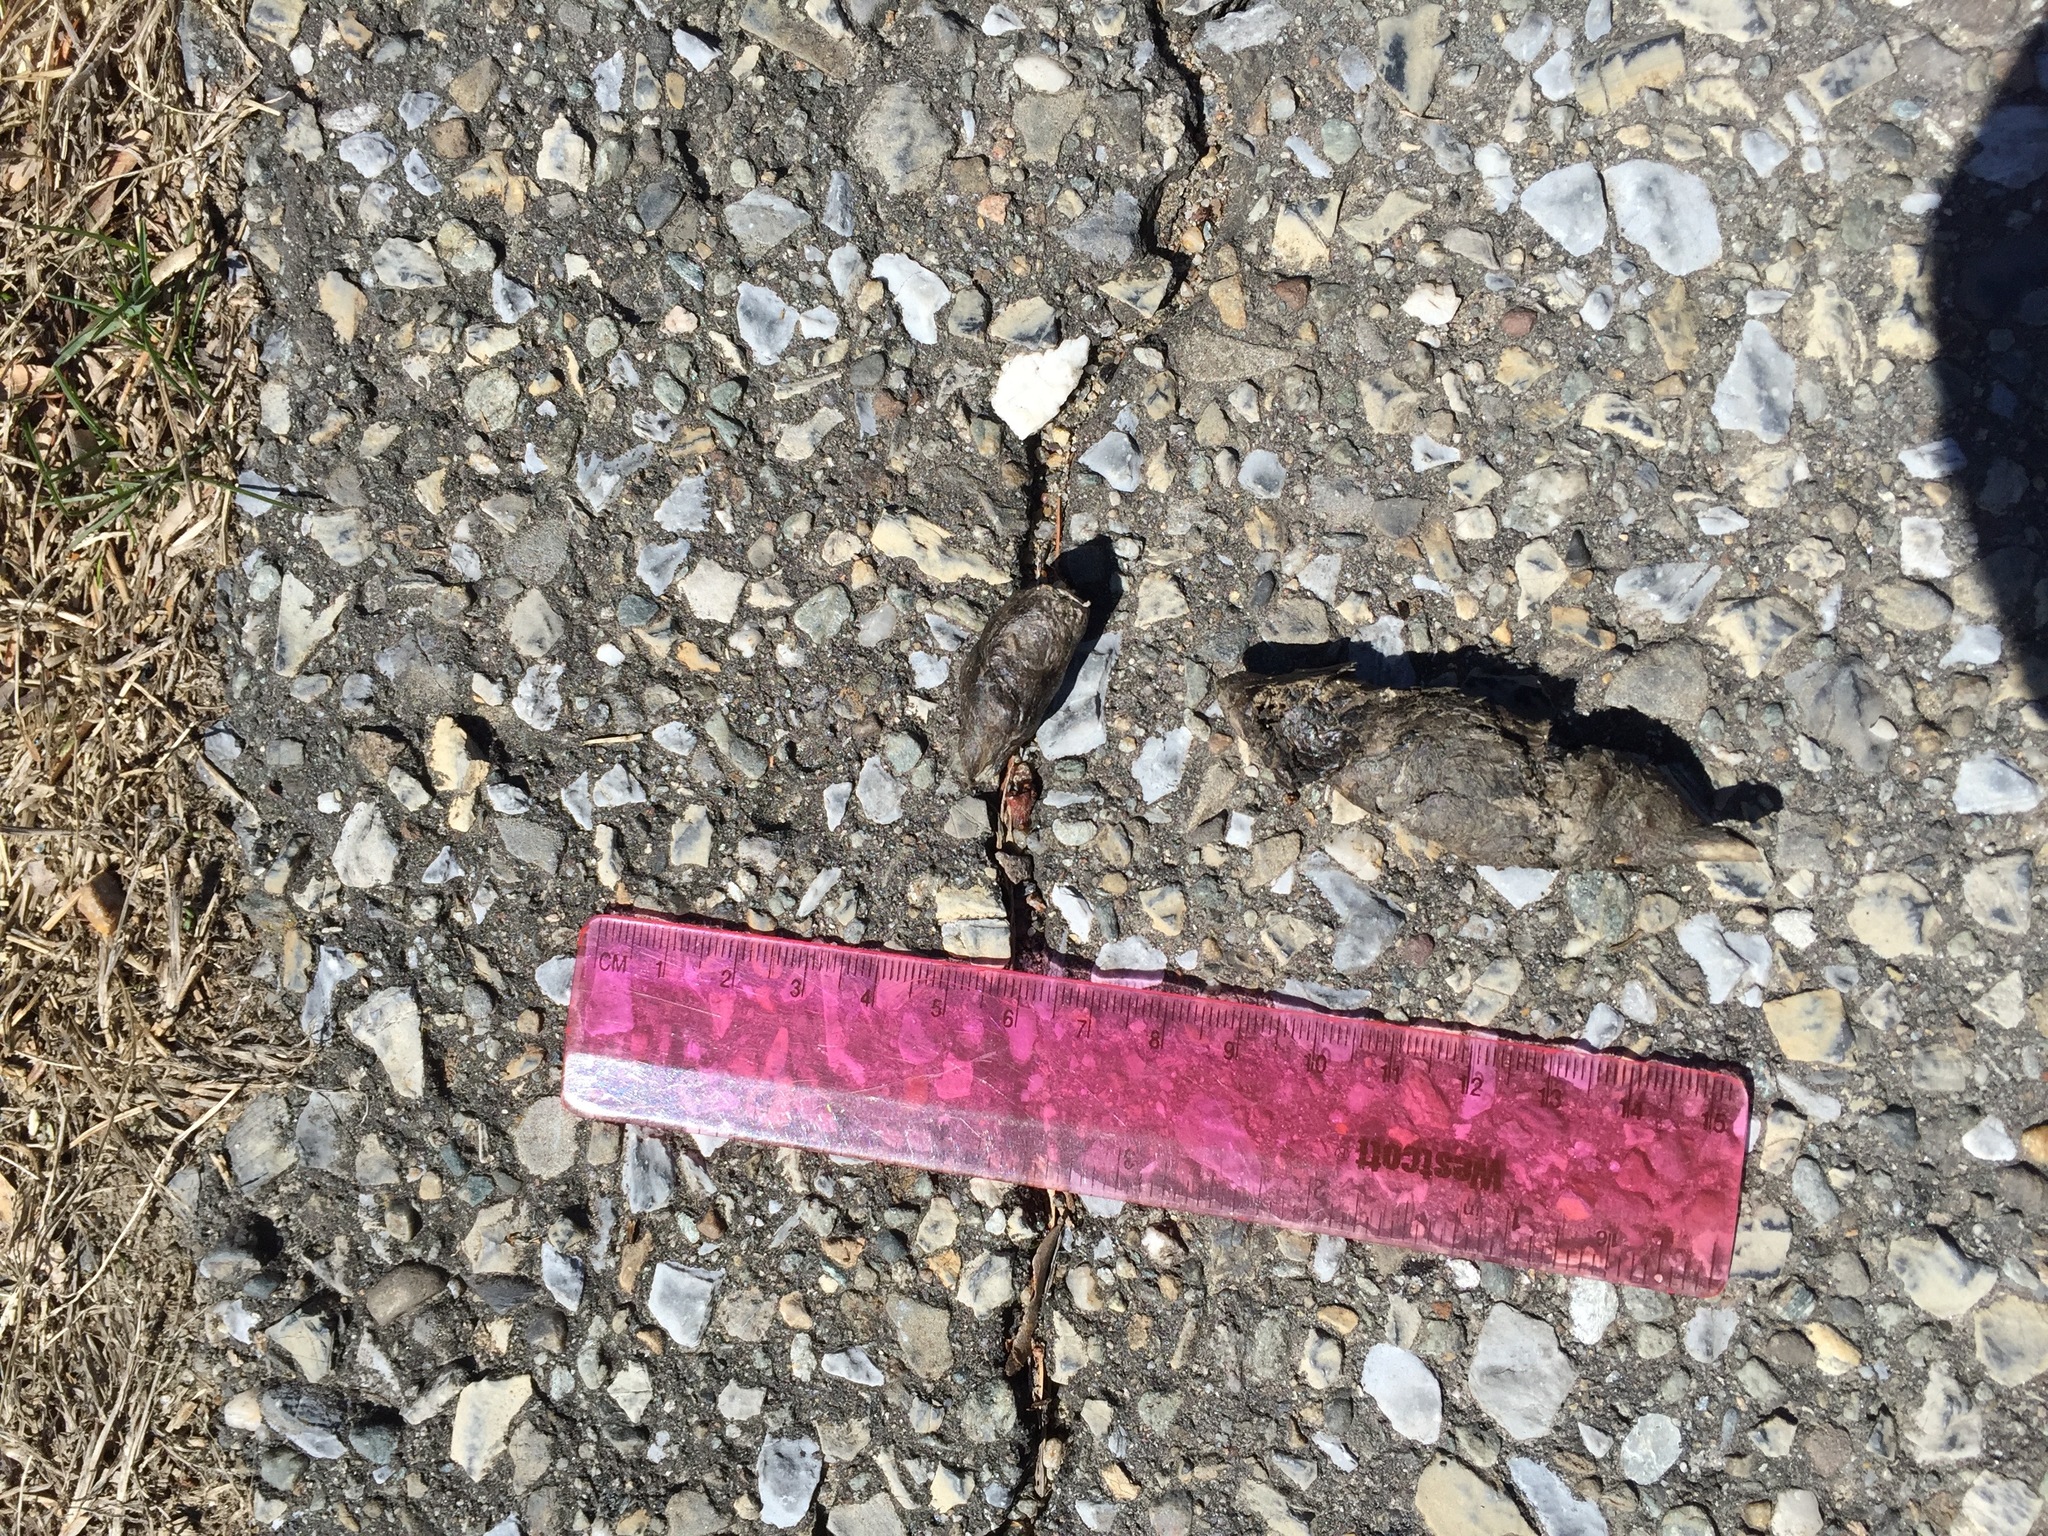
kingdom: Animalia
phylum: Chordata
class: Mammalia
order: Carnivora
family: Canidae
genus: Canis
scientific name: Canis latrans
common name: Coyote
